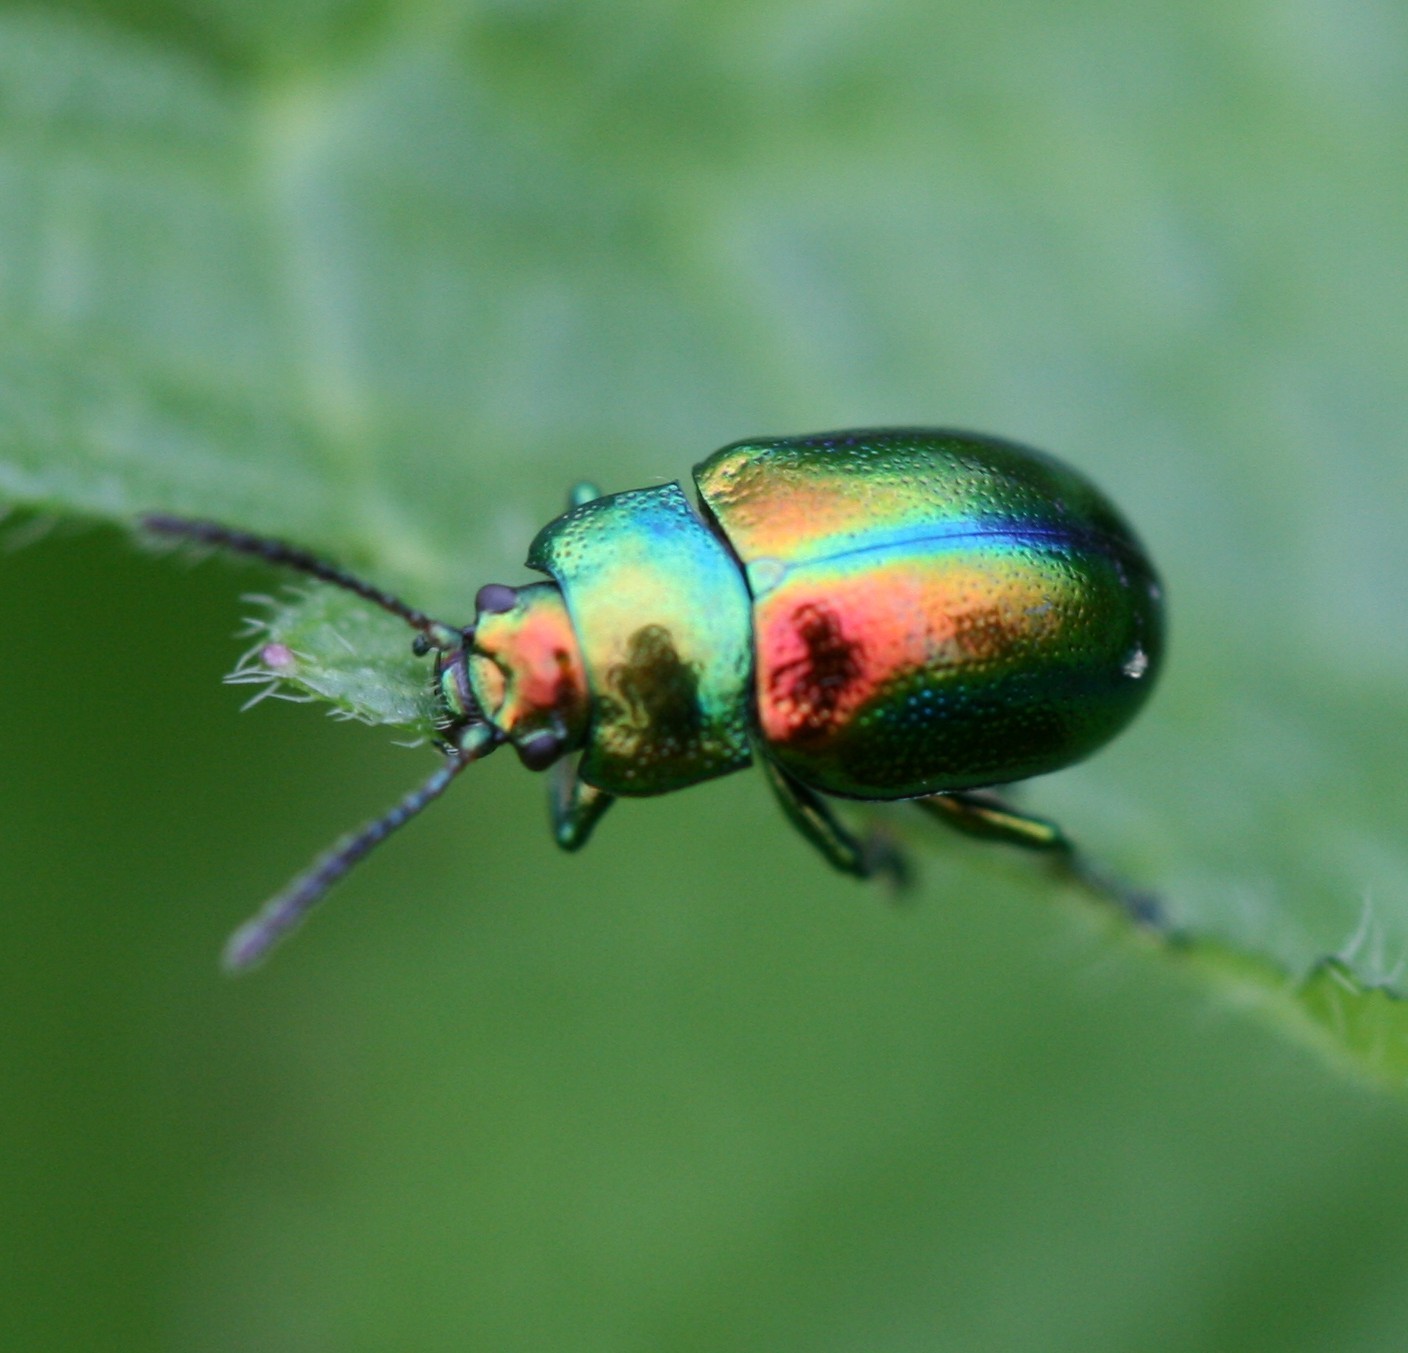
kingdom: Animalia
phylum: Arthropoda
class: Insecta
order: Coleoptera
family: Chrysomelidae
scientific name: Chrysomelidae
